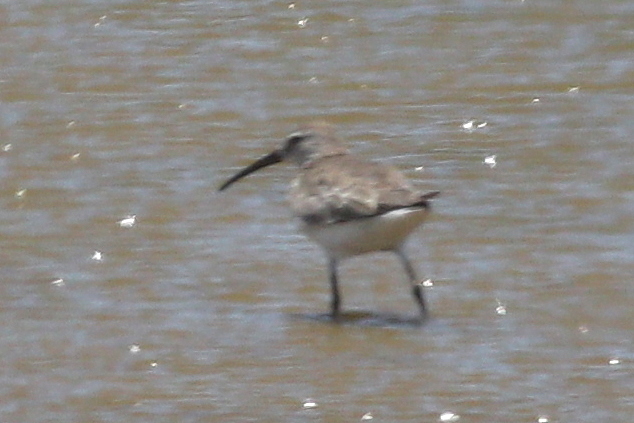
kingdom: Animalia
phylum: Chordata
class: Aves
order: Charadriiformes
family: Scolopacidae
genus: Calidris
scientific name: Calidris ferruginea
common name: Curlew sandpiper
